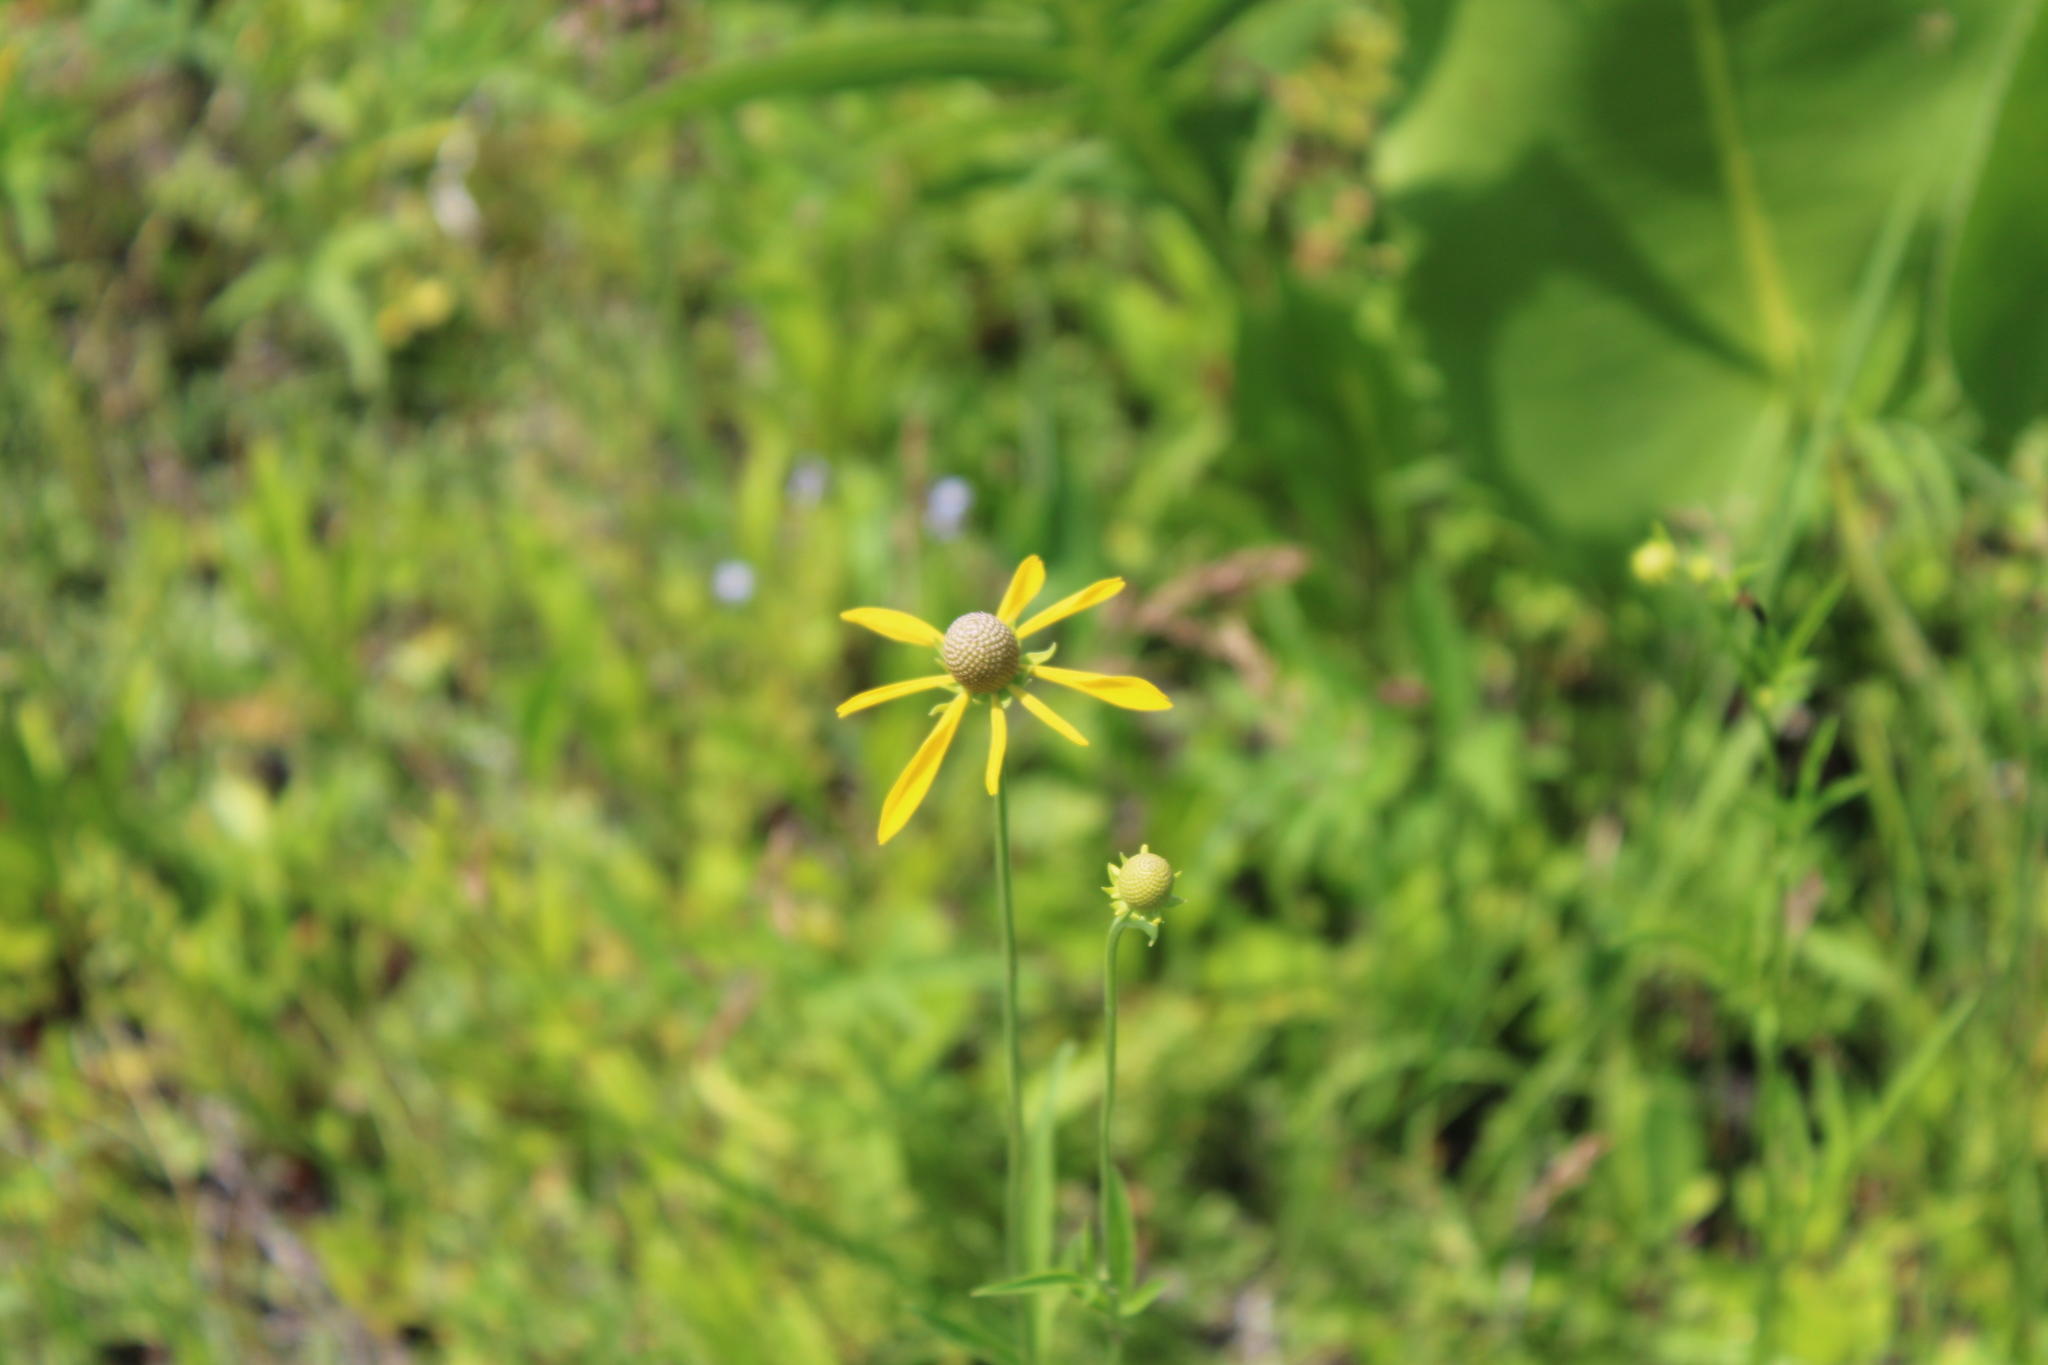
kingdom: Plantae
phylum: Tracheophyta
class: Magnoliopsida
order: Asterales
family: Asteraceae
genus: Ratibida
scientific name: Ratibida pinnata
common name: Drooping prairie-coneflower
